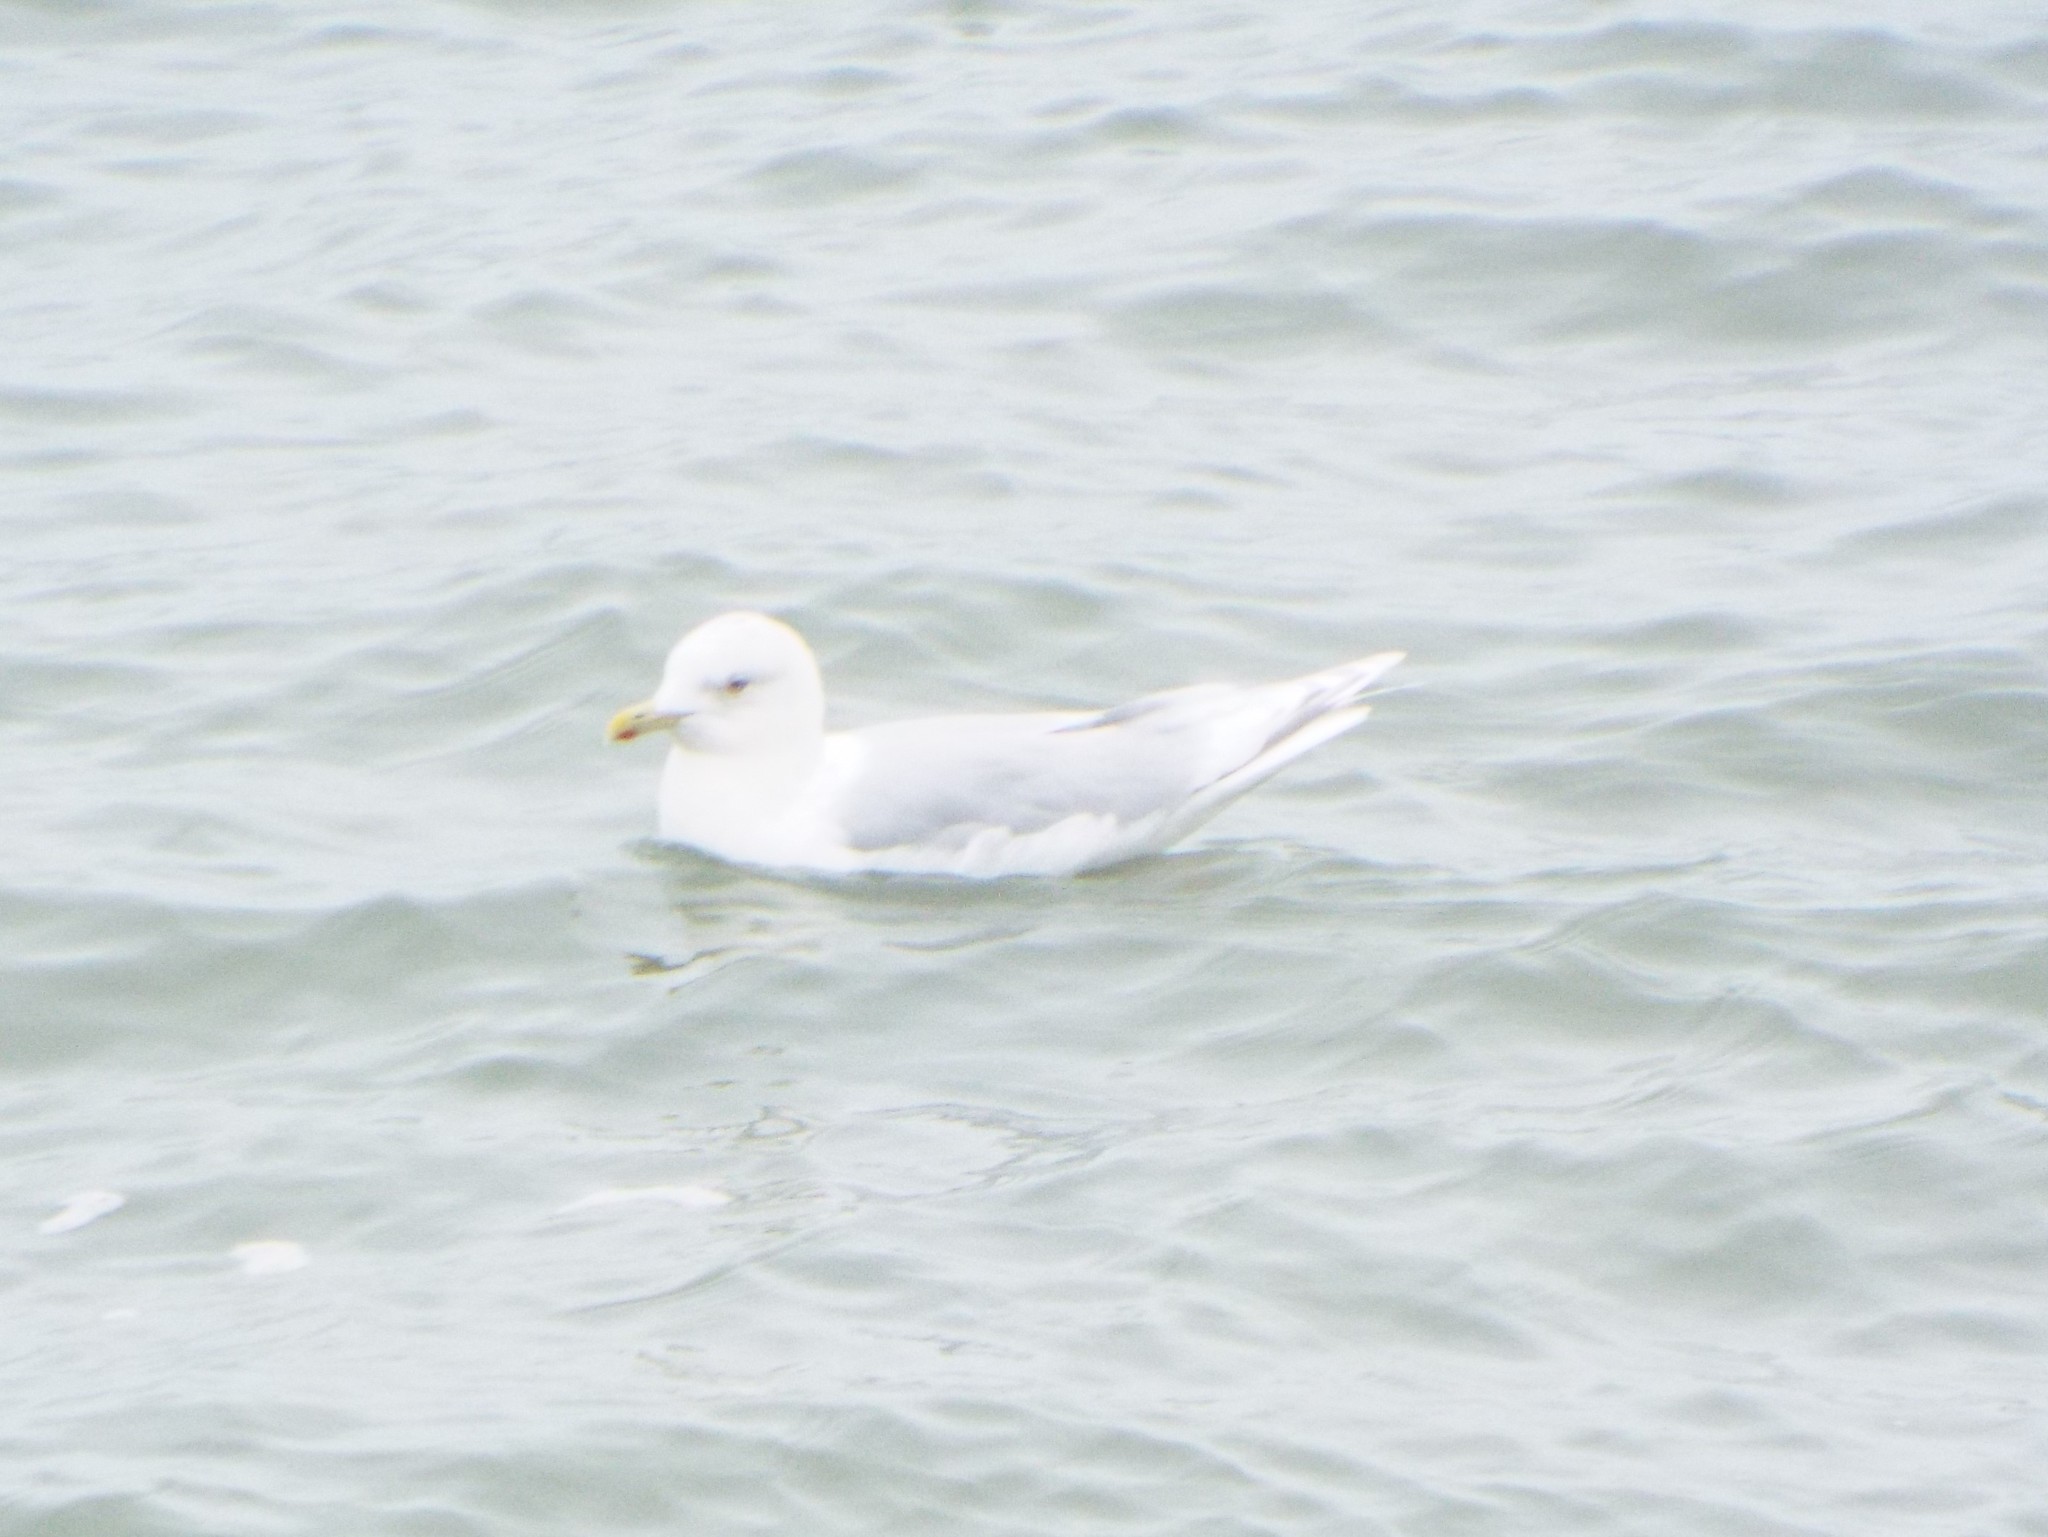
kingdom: Animalia
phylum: Chordata
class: Aves
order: Charadriiformes
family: Laridae
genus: Larus
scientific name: Larus glaucoides
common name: Iceland gull
